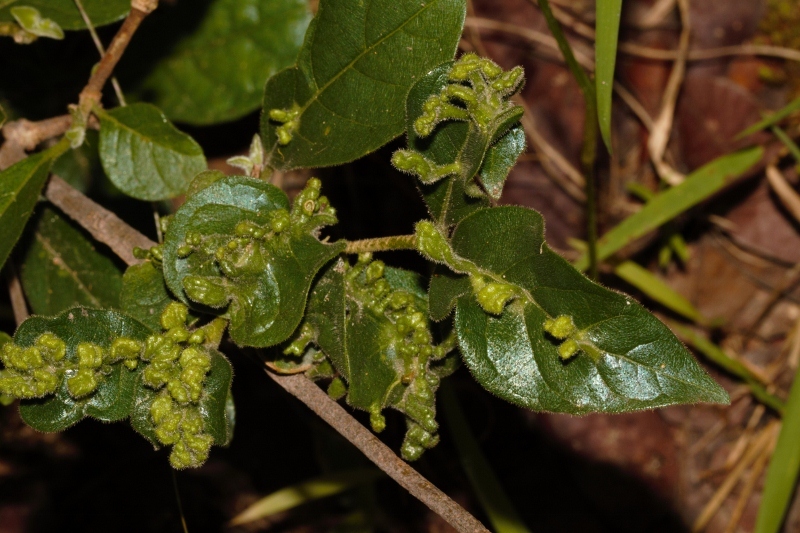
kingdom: Plantae
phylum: Tracheophyta
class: Magnoliopsida
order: Gentianales
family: Rubiaceae
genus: Vangueria
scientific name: Vangueria infausta
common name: Medlar
